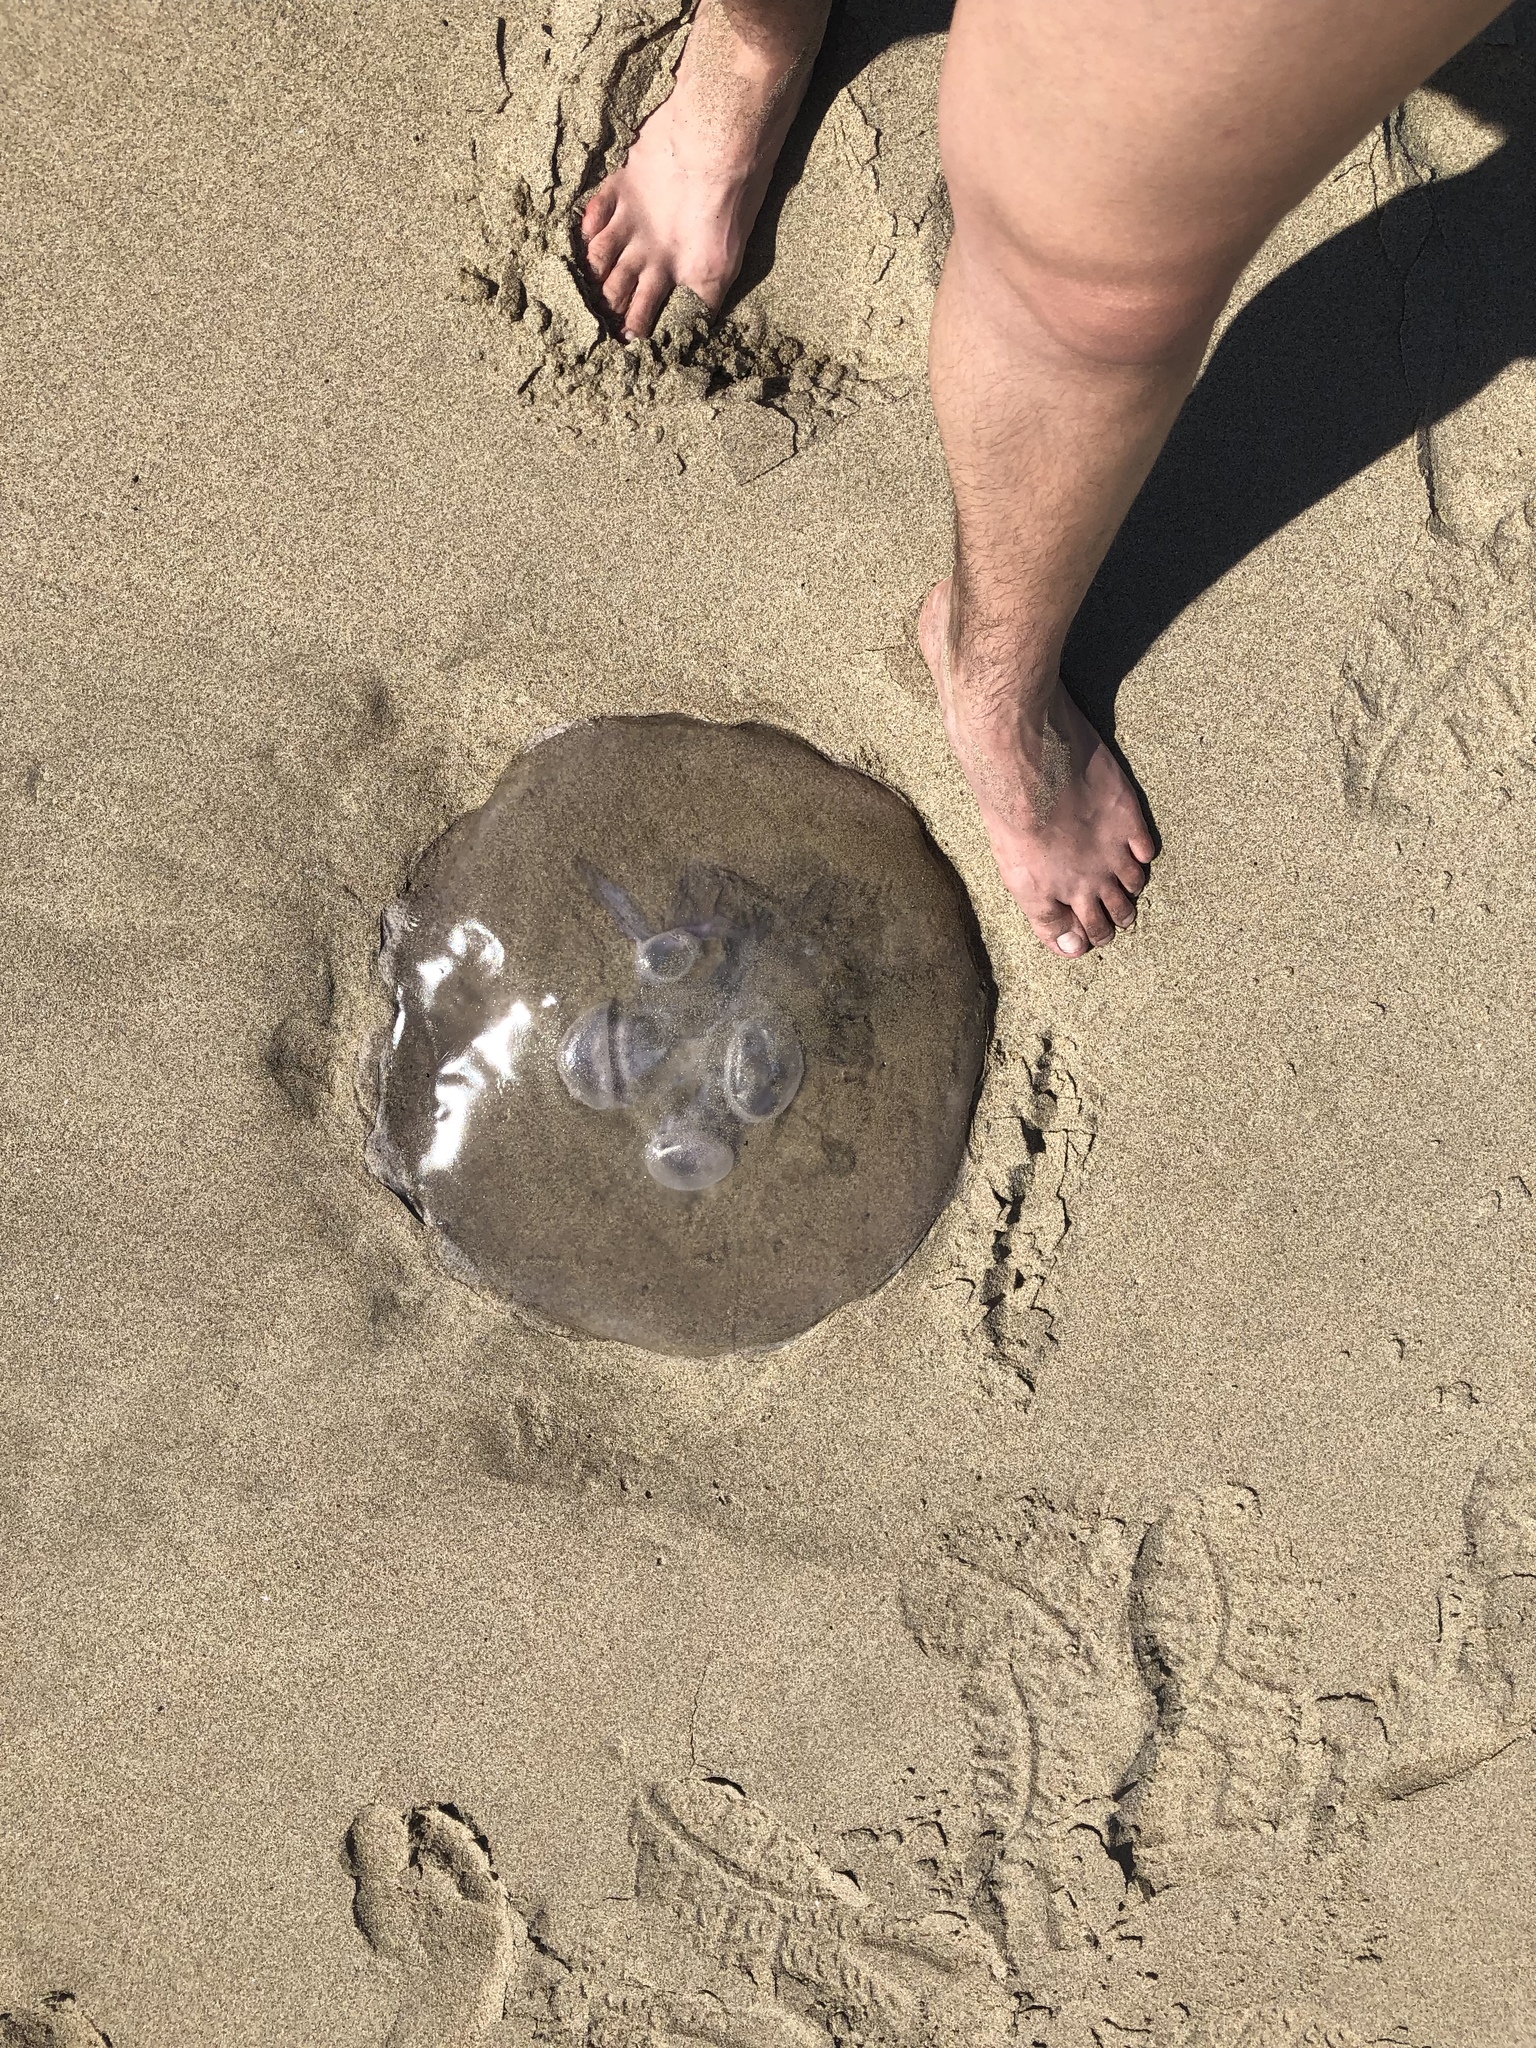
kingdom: Animalia
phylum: Cnidaria
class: Scyphozoa
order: Semaeostomeae
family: Ulmaridae
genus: Aurelia
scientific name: Aurelia labiata
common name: Pacific moon jelly
